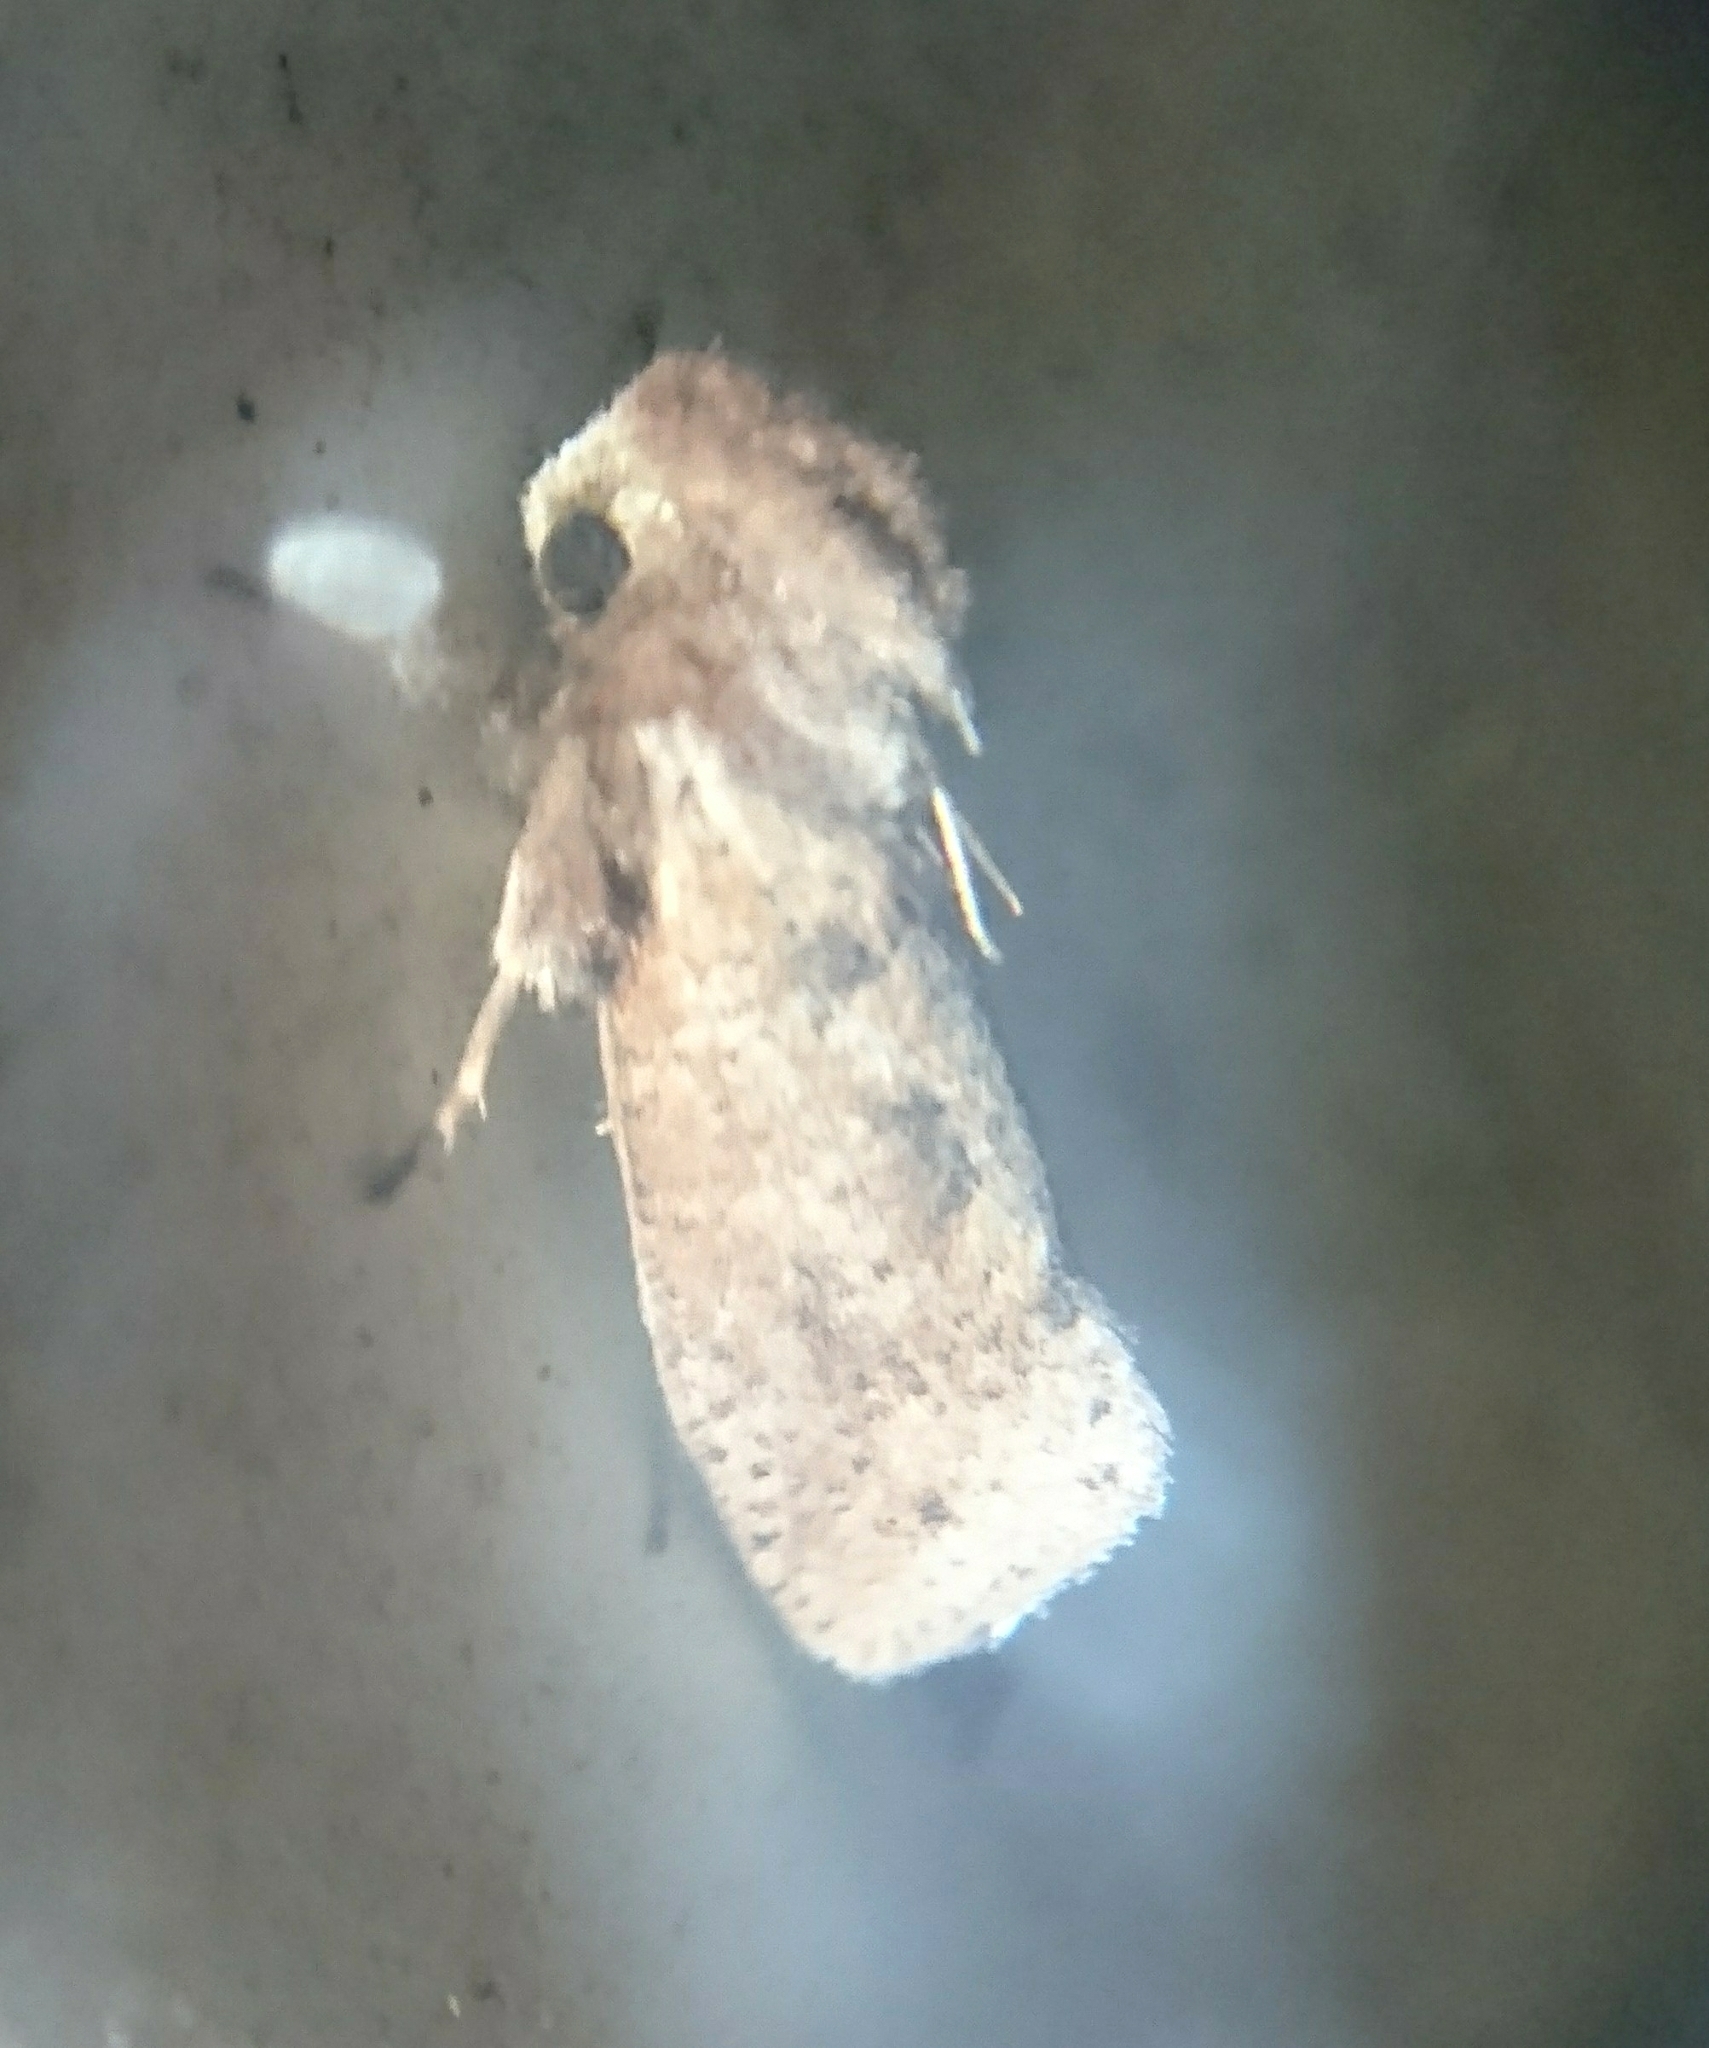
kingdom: Animalia
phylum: Arthropoda
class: Insecta
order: Lepidoptera
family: Tineidae
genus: Acrolophus
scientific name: Acrolophus plumifrontella
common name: Eastern grass tubeworm moth
